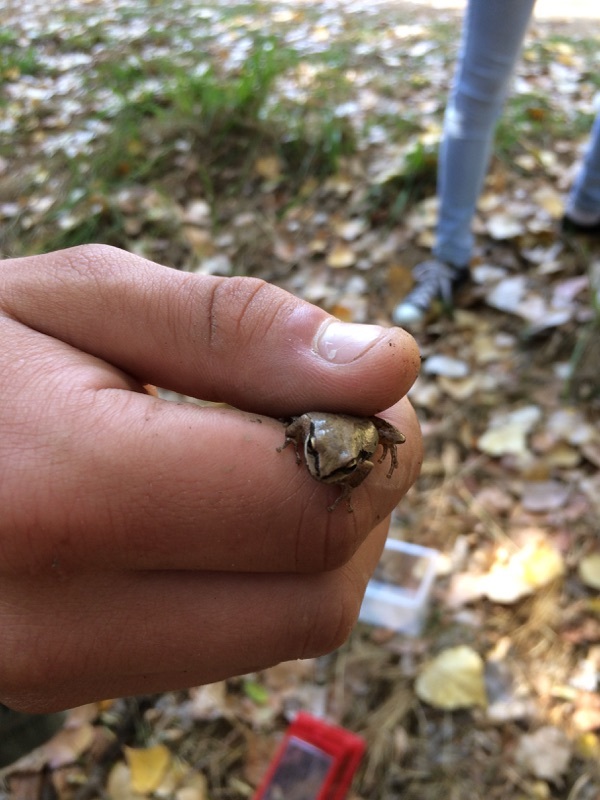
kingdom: Animalia
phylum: Chordata
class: Amphibia
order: Anura
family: Hylidae
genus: Pseudacris
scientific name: Pseudacris regilla
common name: Pacific chorus frog
